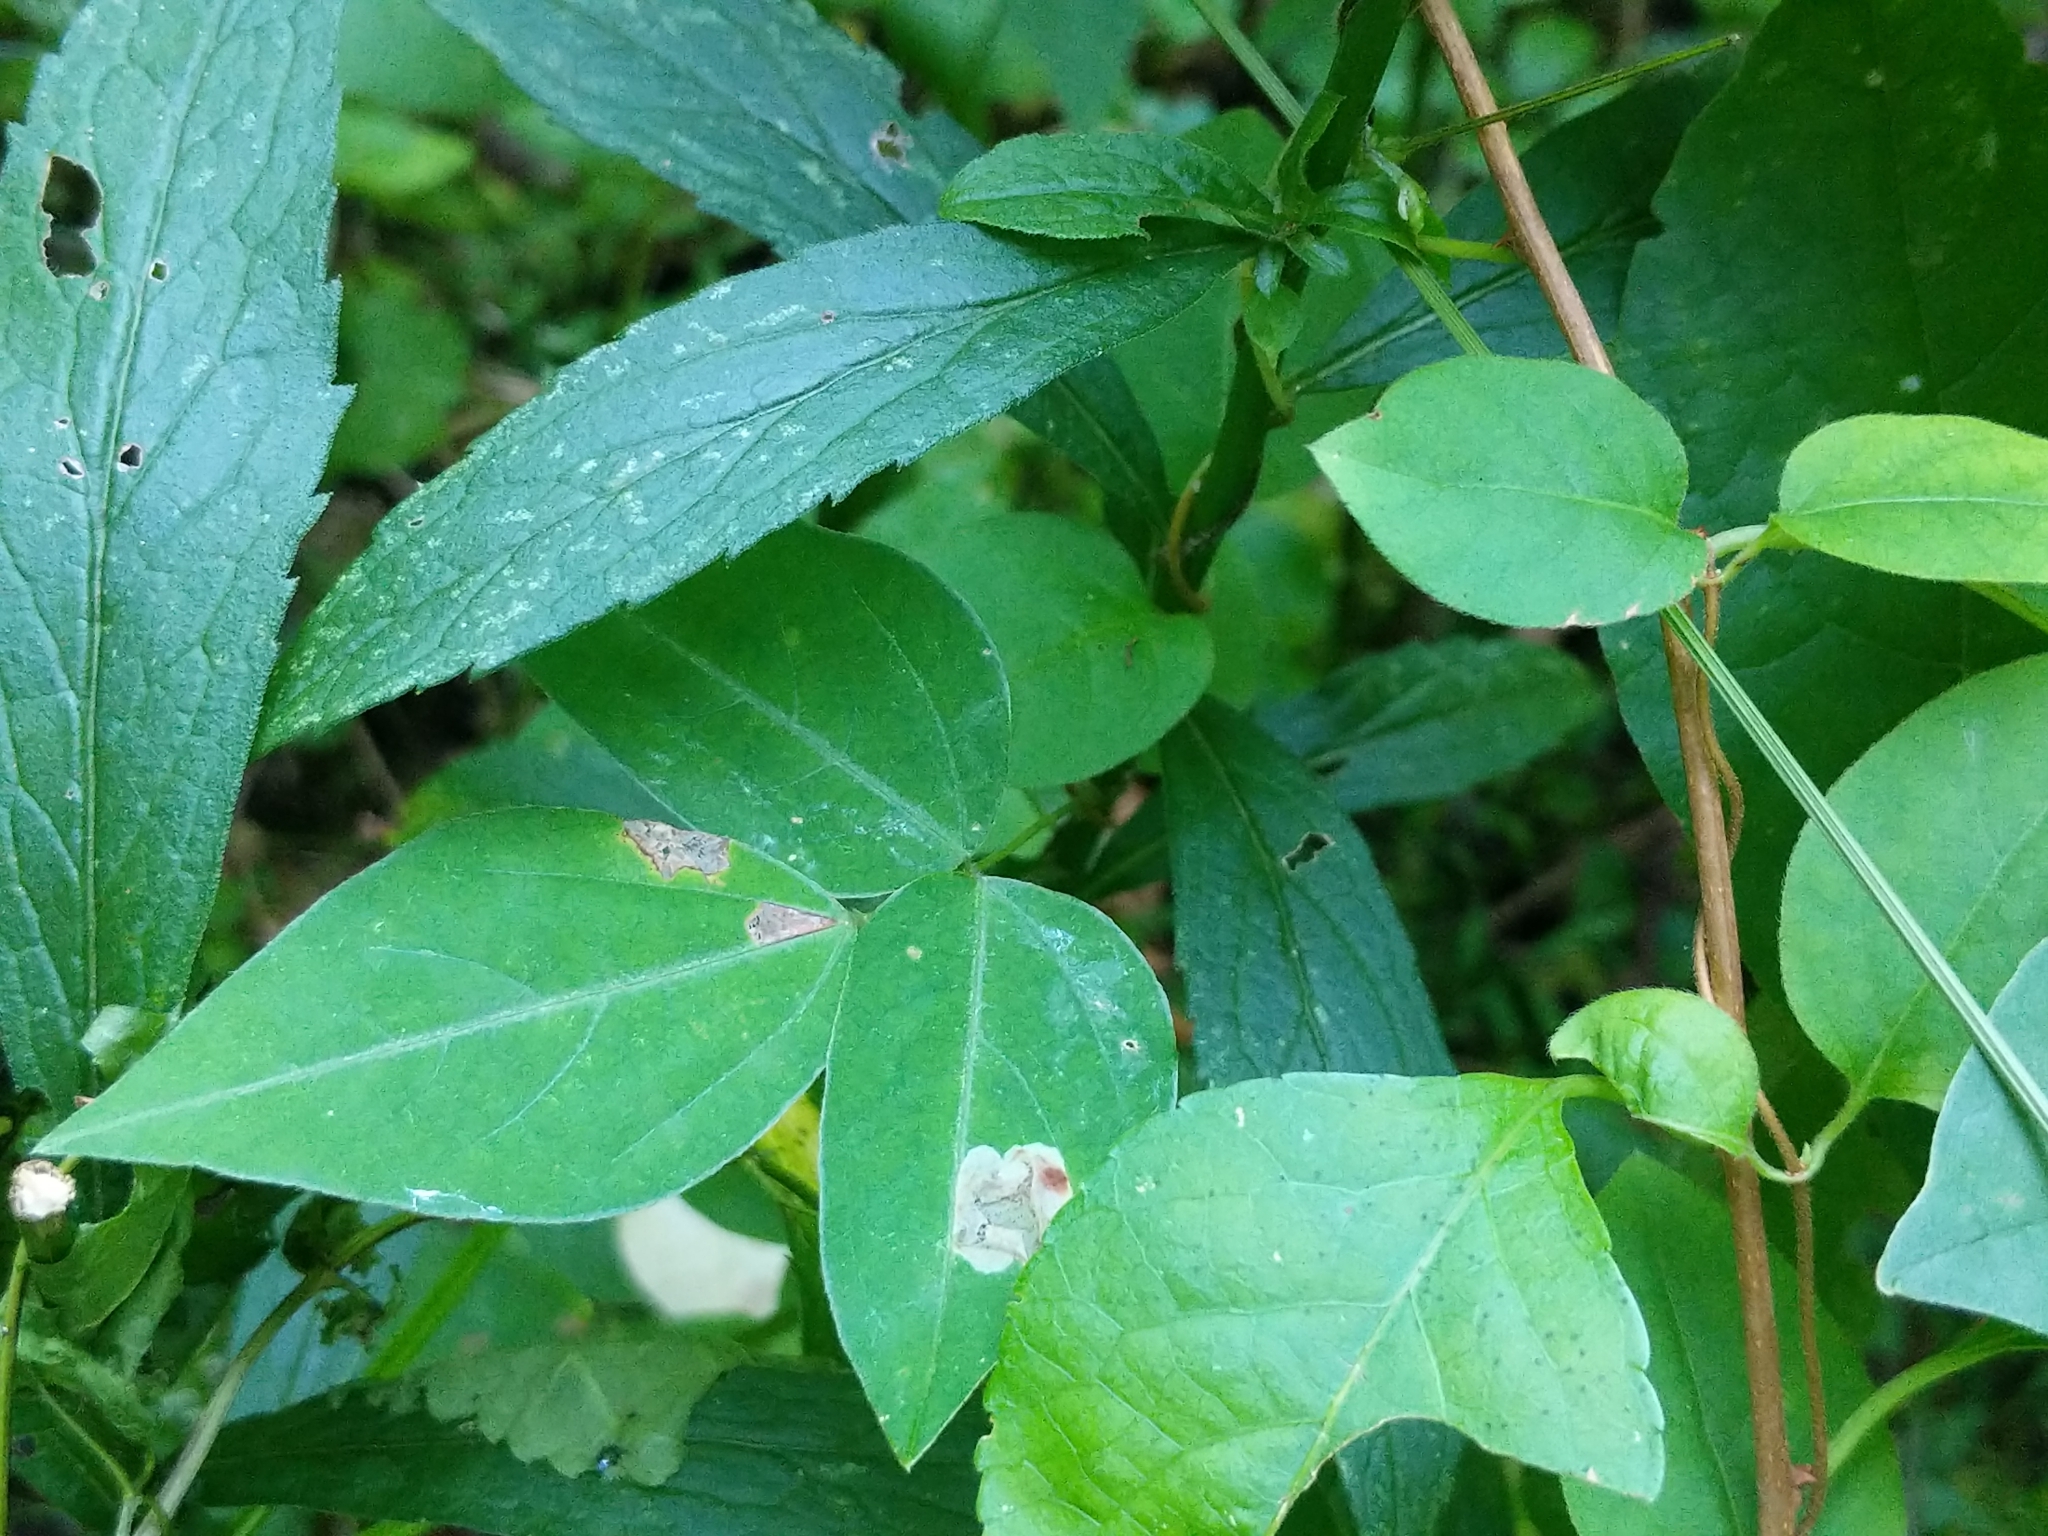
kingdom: Animalia
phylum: Arthropoda
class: Insecta
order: Lepidoptera
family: Gracillariidae
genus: Leucanthiza
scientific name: Leucanthiza amphicarpeaefoliella
